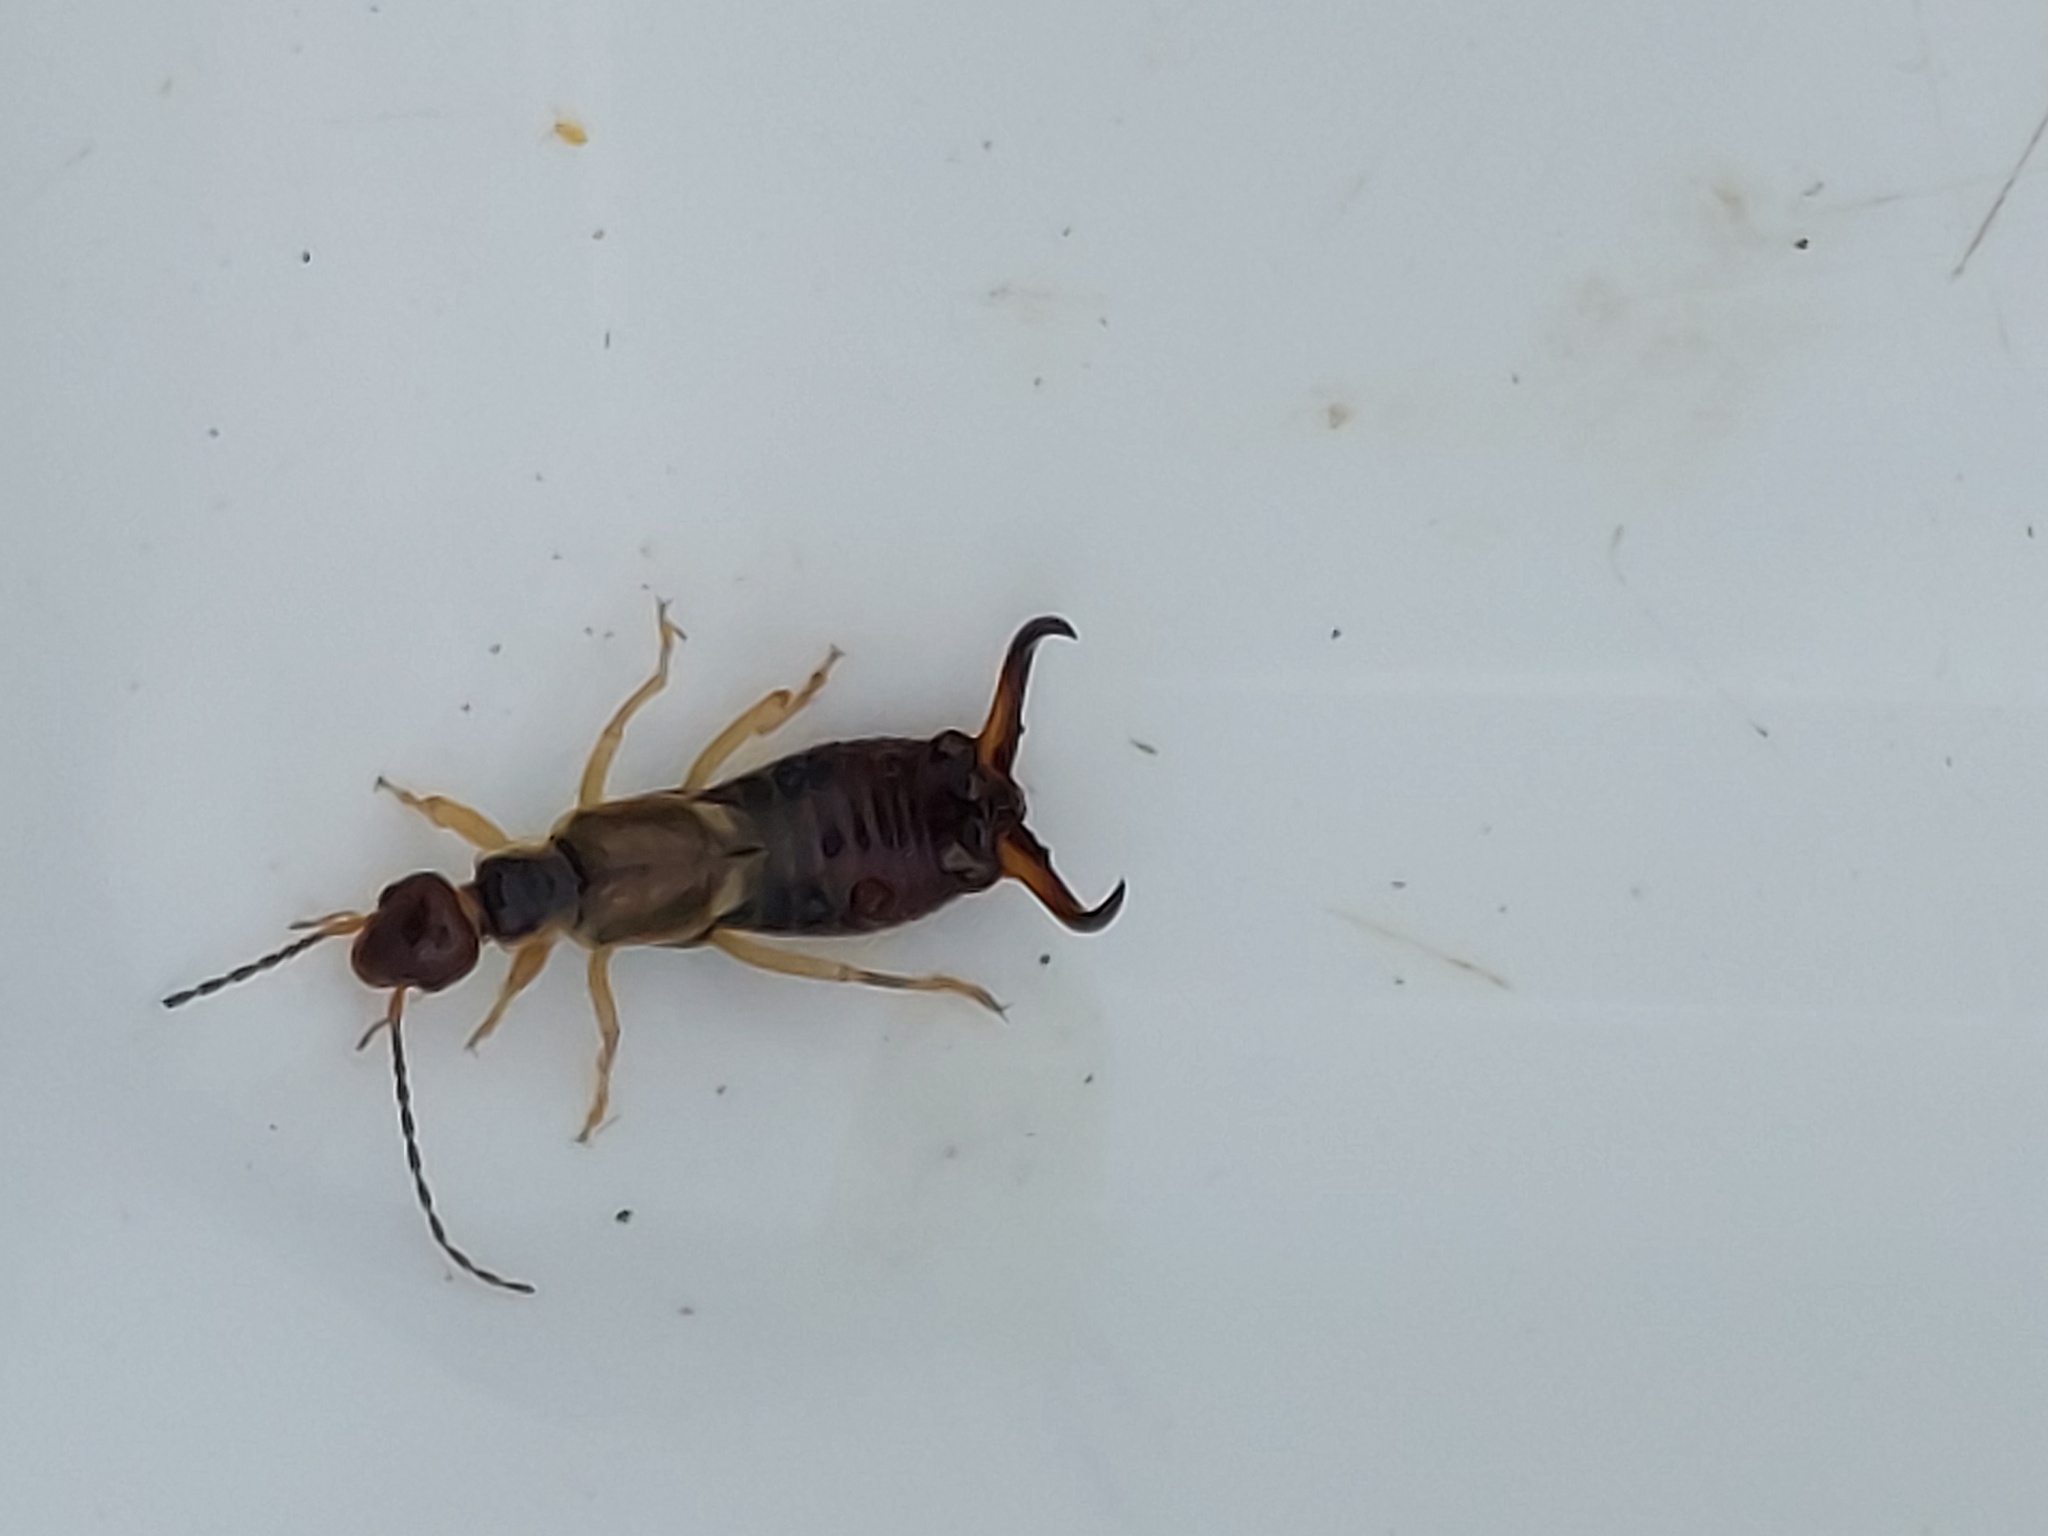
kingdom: Animalia
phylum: Arthropoda
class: Insecta
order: Dermaptera
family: Forficulidae
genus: Forficula
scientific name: Forficula
